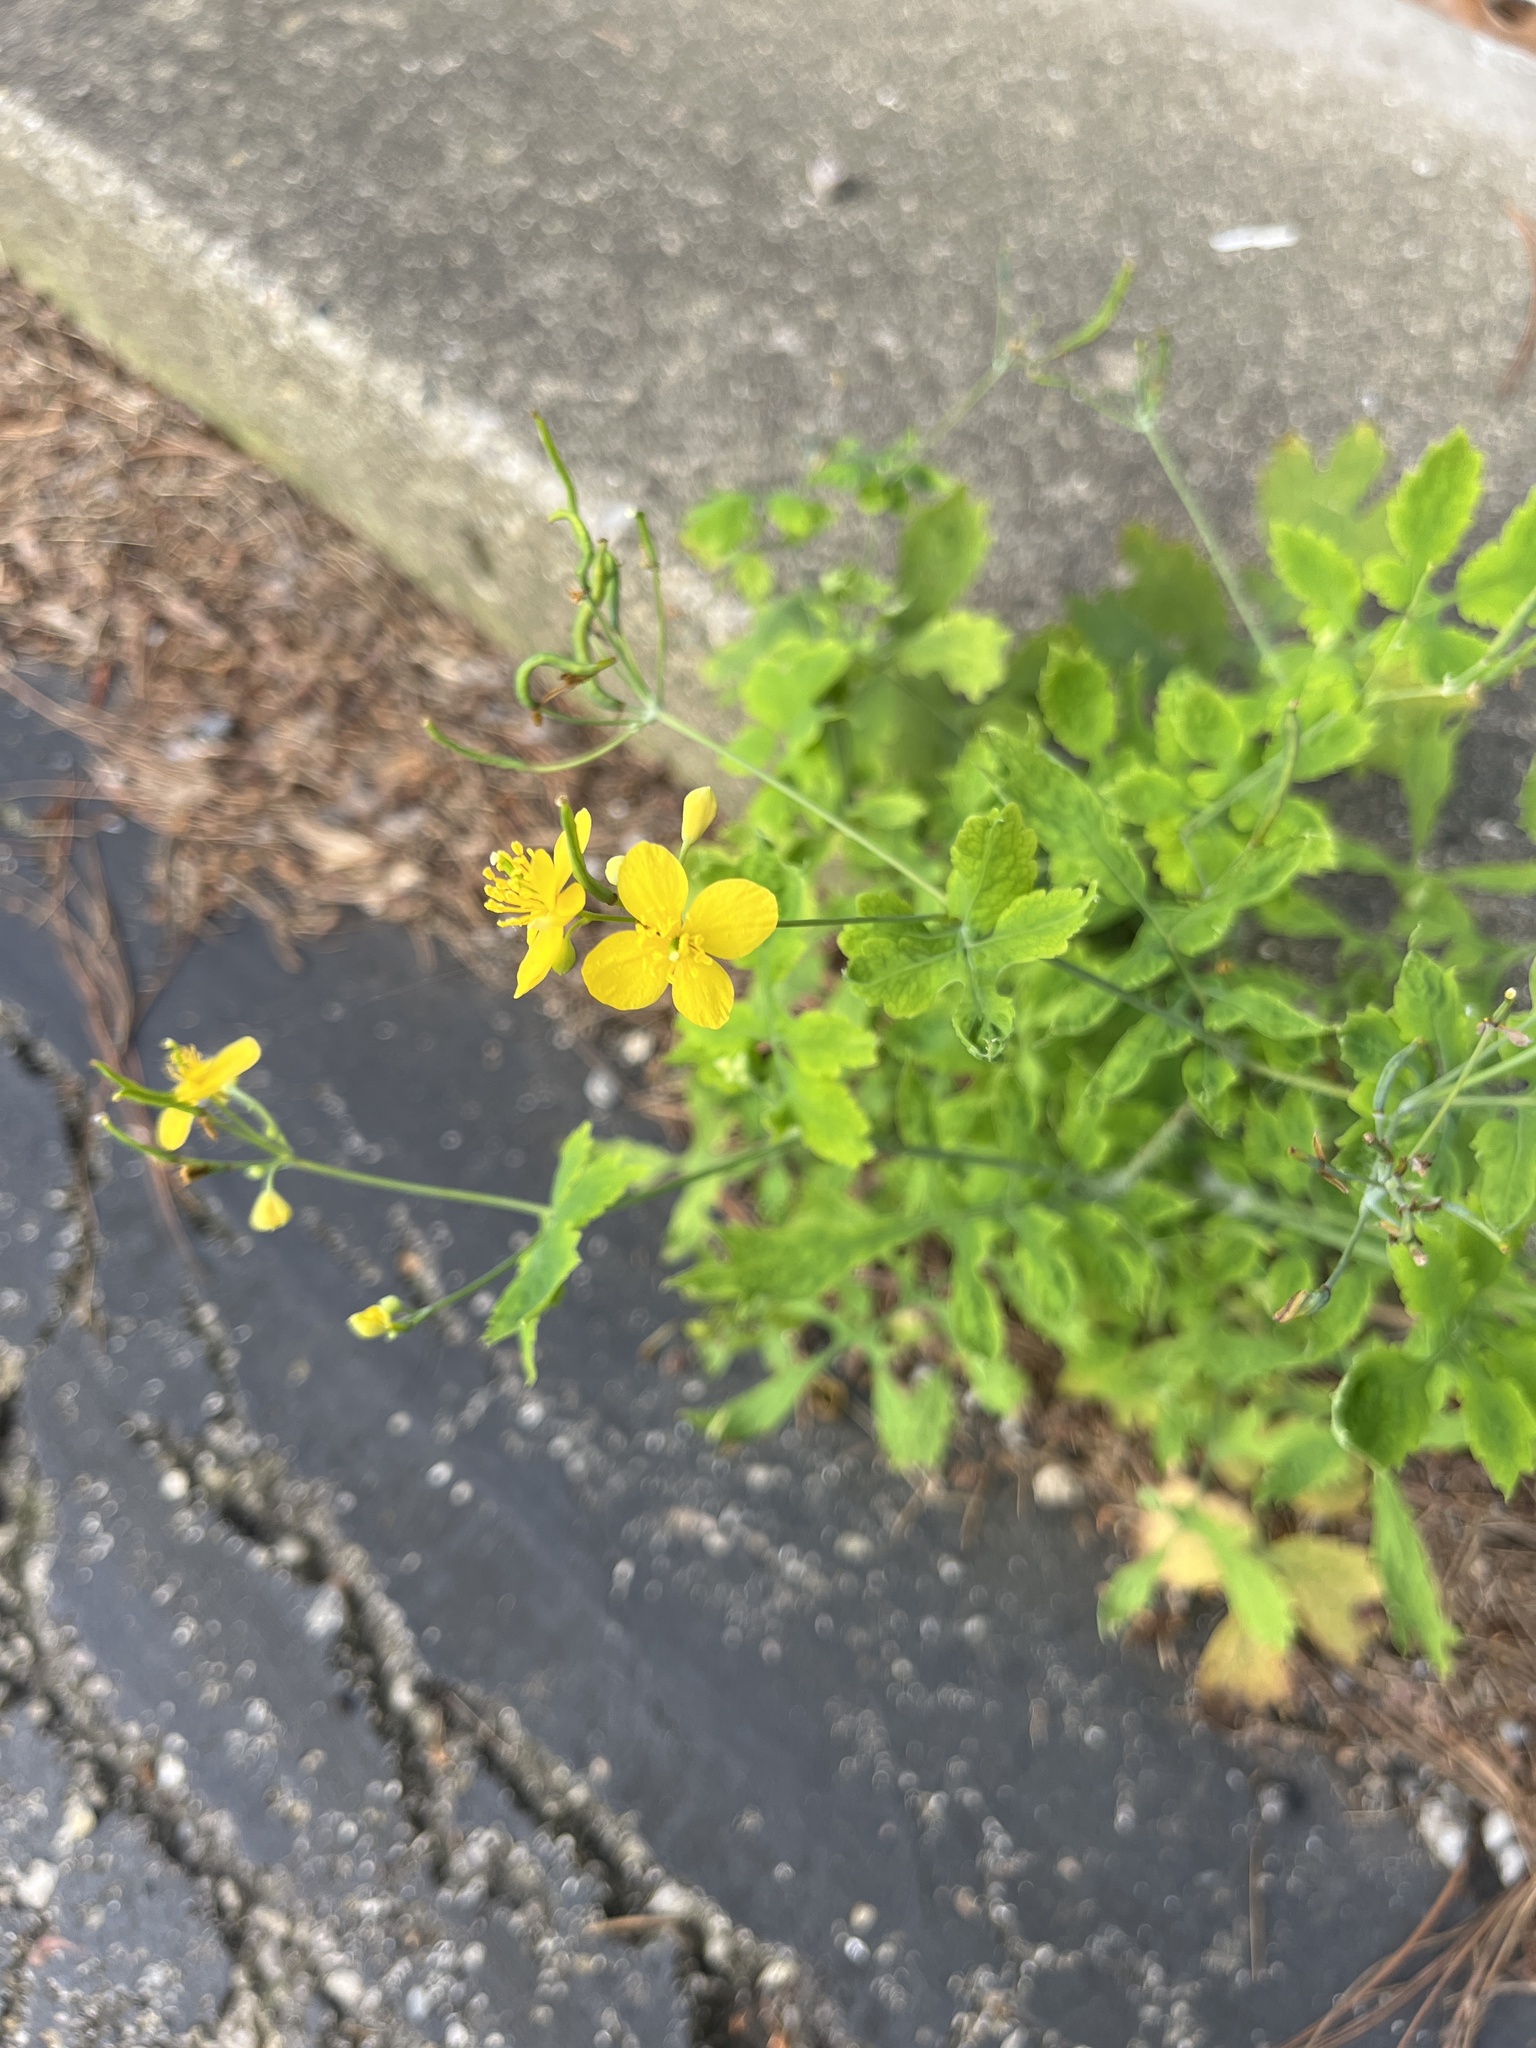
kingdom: Plantae
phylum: Tracheophyta
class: Magnoliopsida
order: Ranunculales
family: Papaveraceae
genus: Chelidonium
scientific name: Chelidonium majus
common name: Greater celandine
